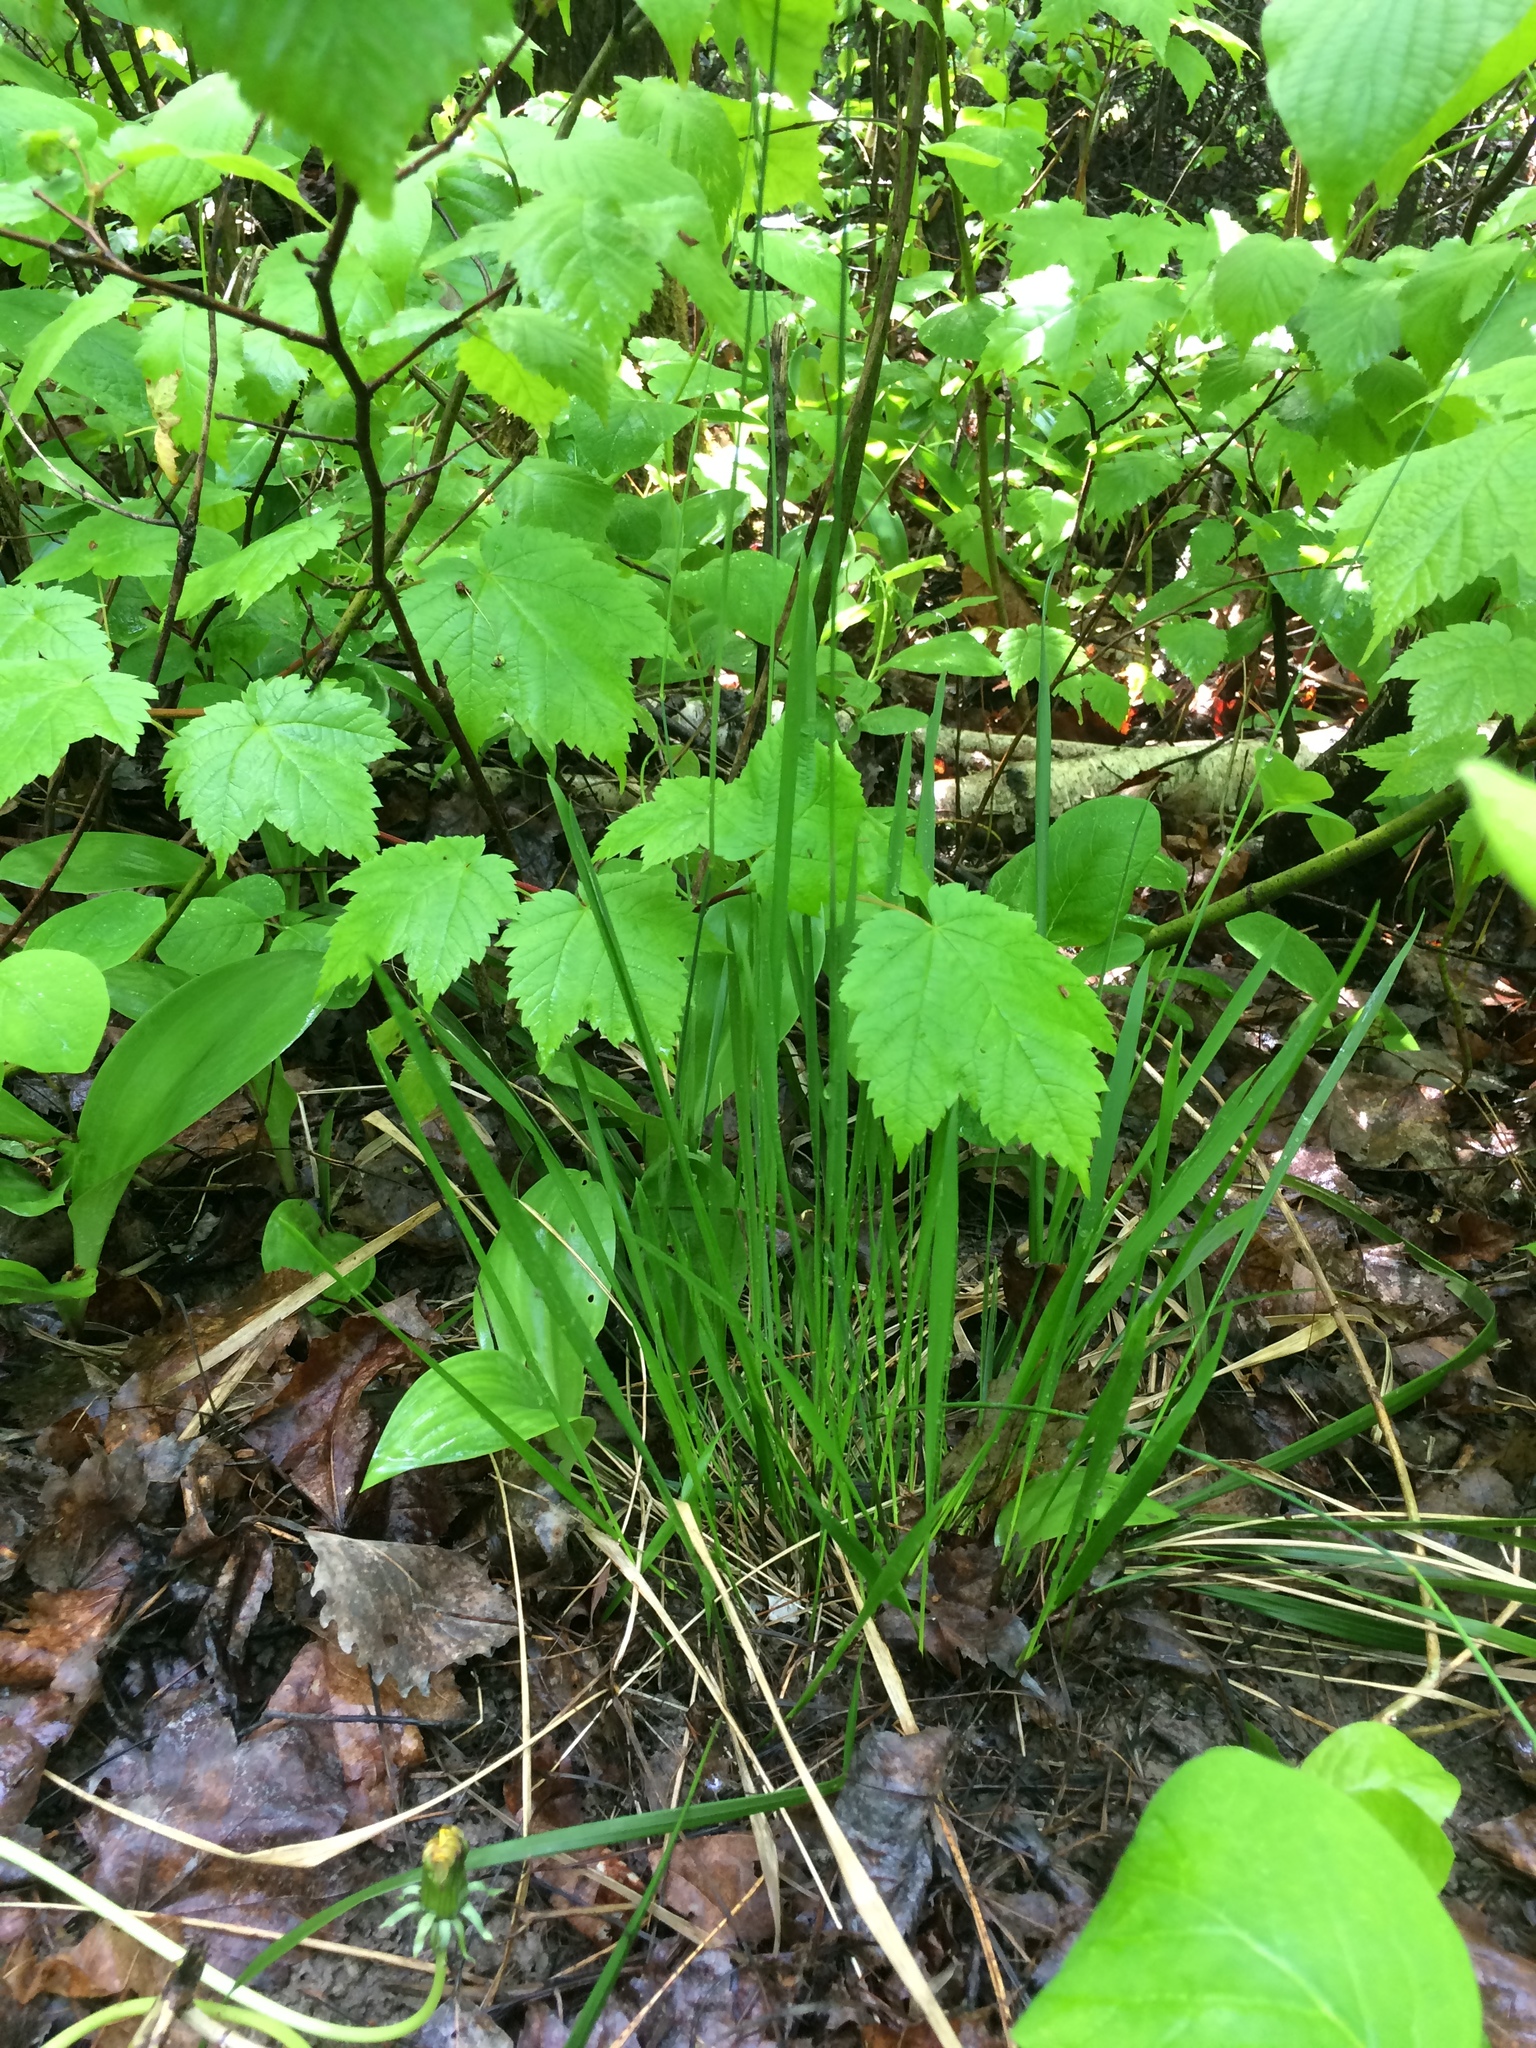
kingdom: Plantae
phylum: Tracheophyta
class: Liliopsida
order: Poales
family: Poaceae
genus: Oryzopsis
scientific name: Oryzopsis asperifolia
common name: Rough-leaved mountain rice
